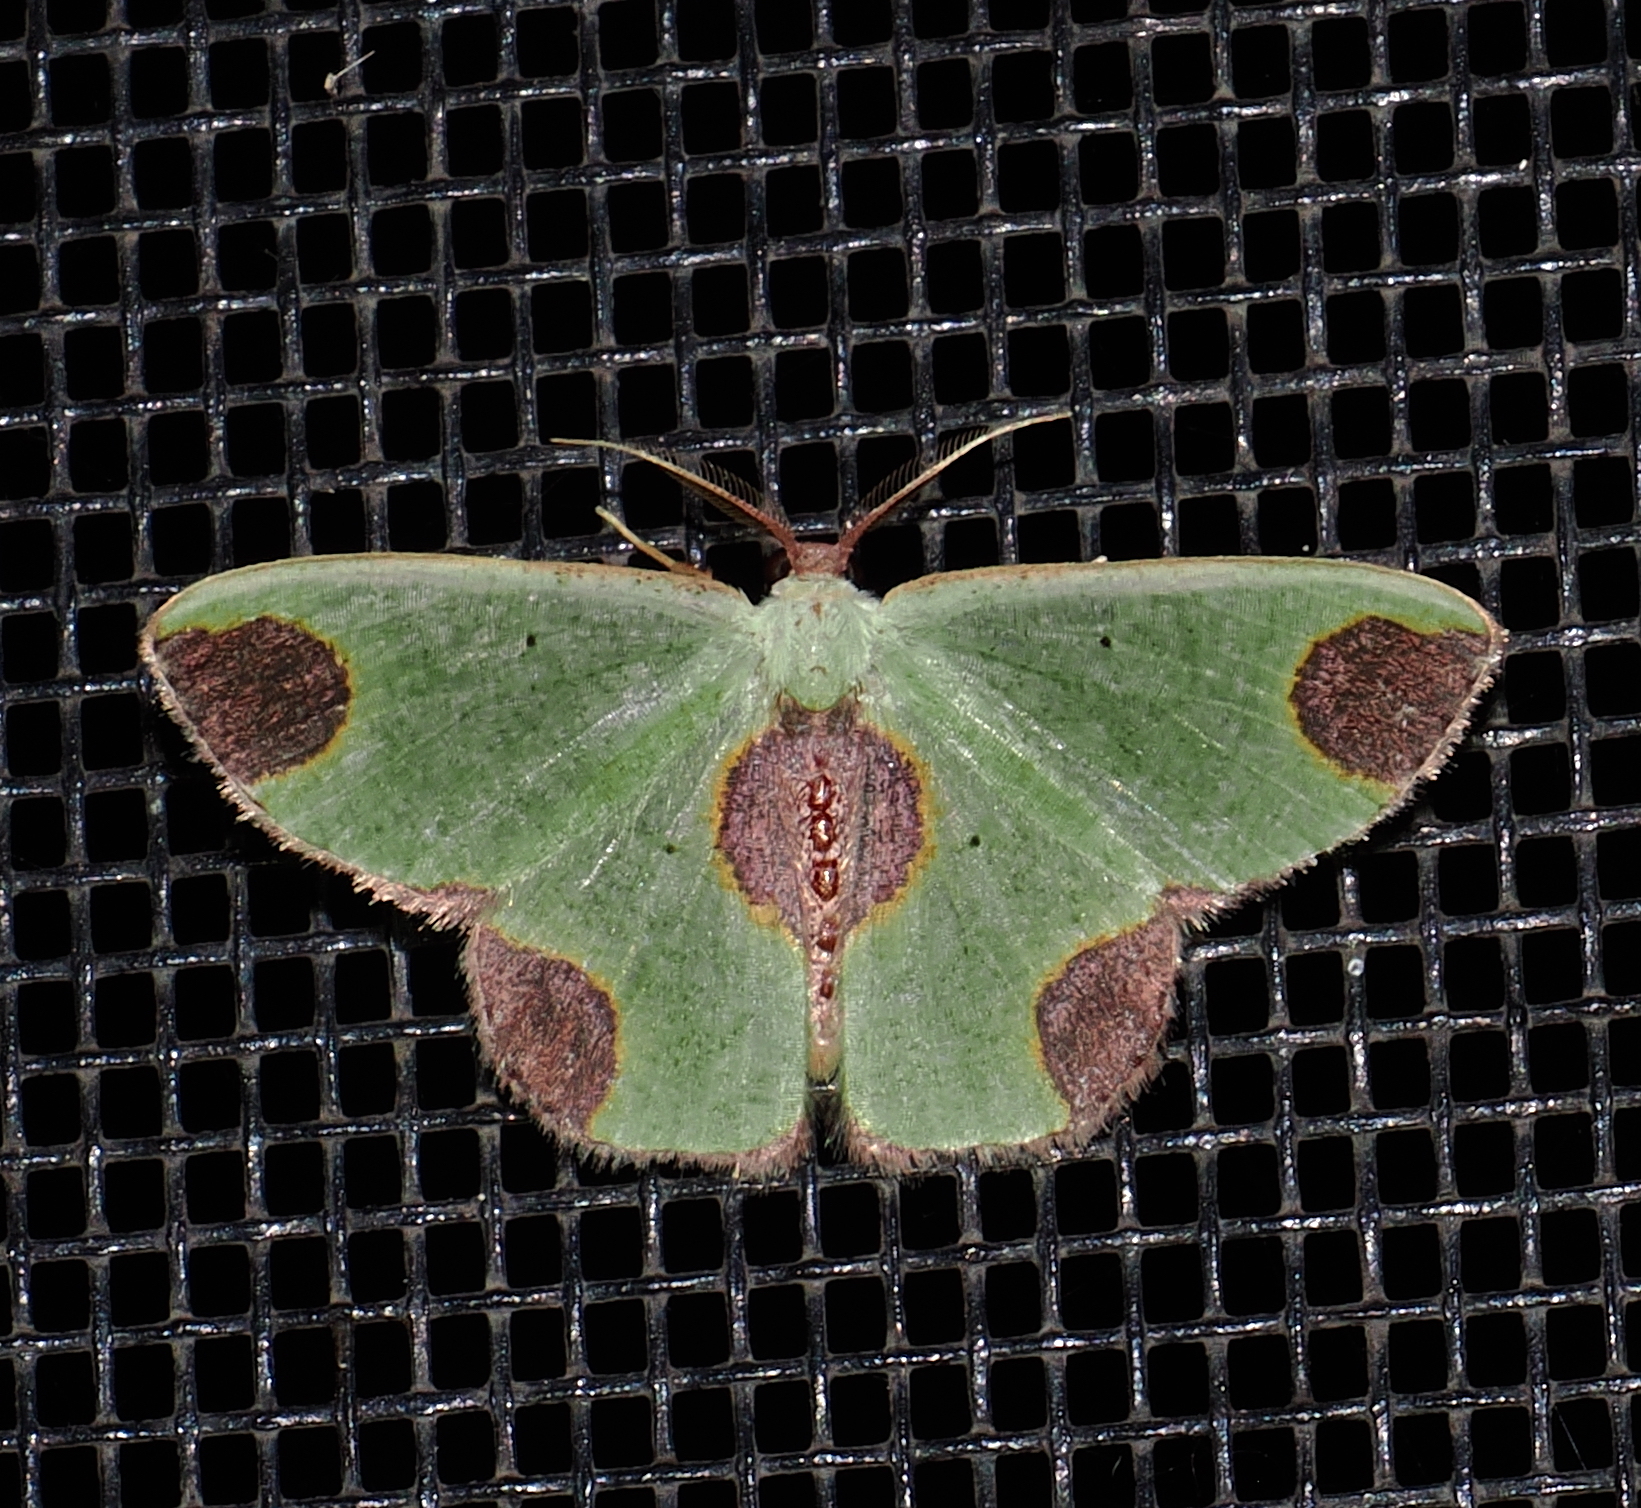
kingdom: Animalia
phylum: Arthropoda
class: Insecta
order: Lepidoptera
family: Geometridae
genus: Oospila
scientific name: Oospila rosipara
